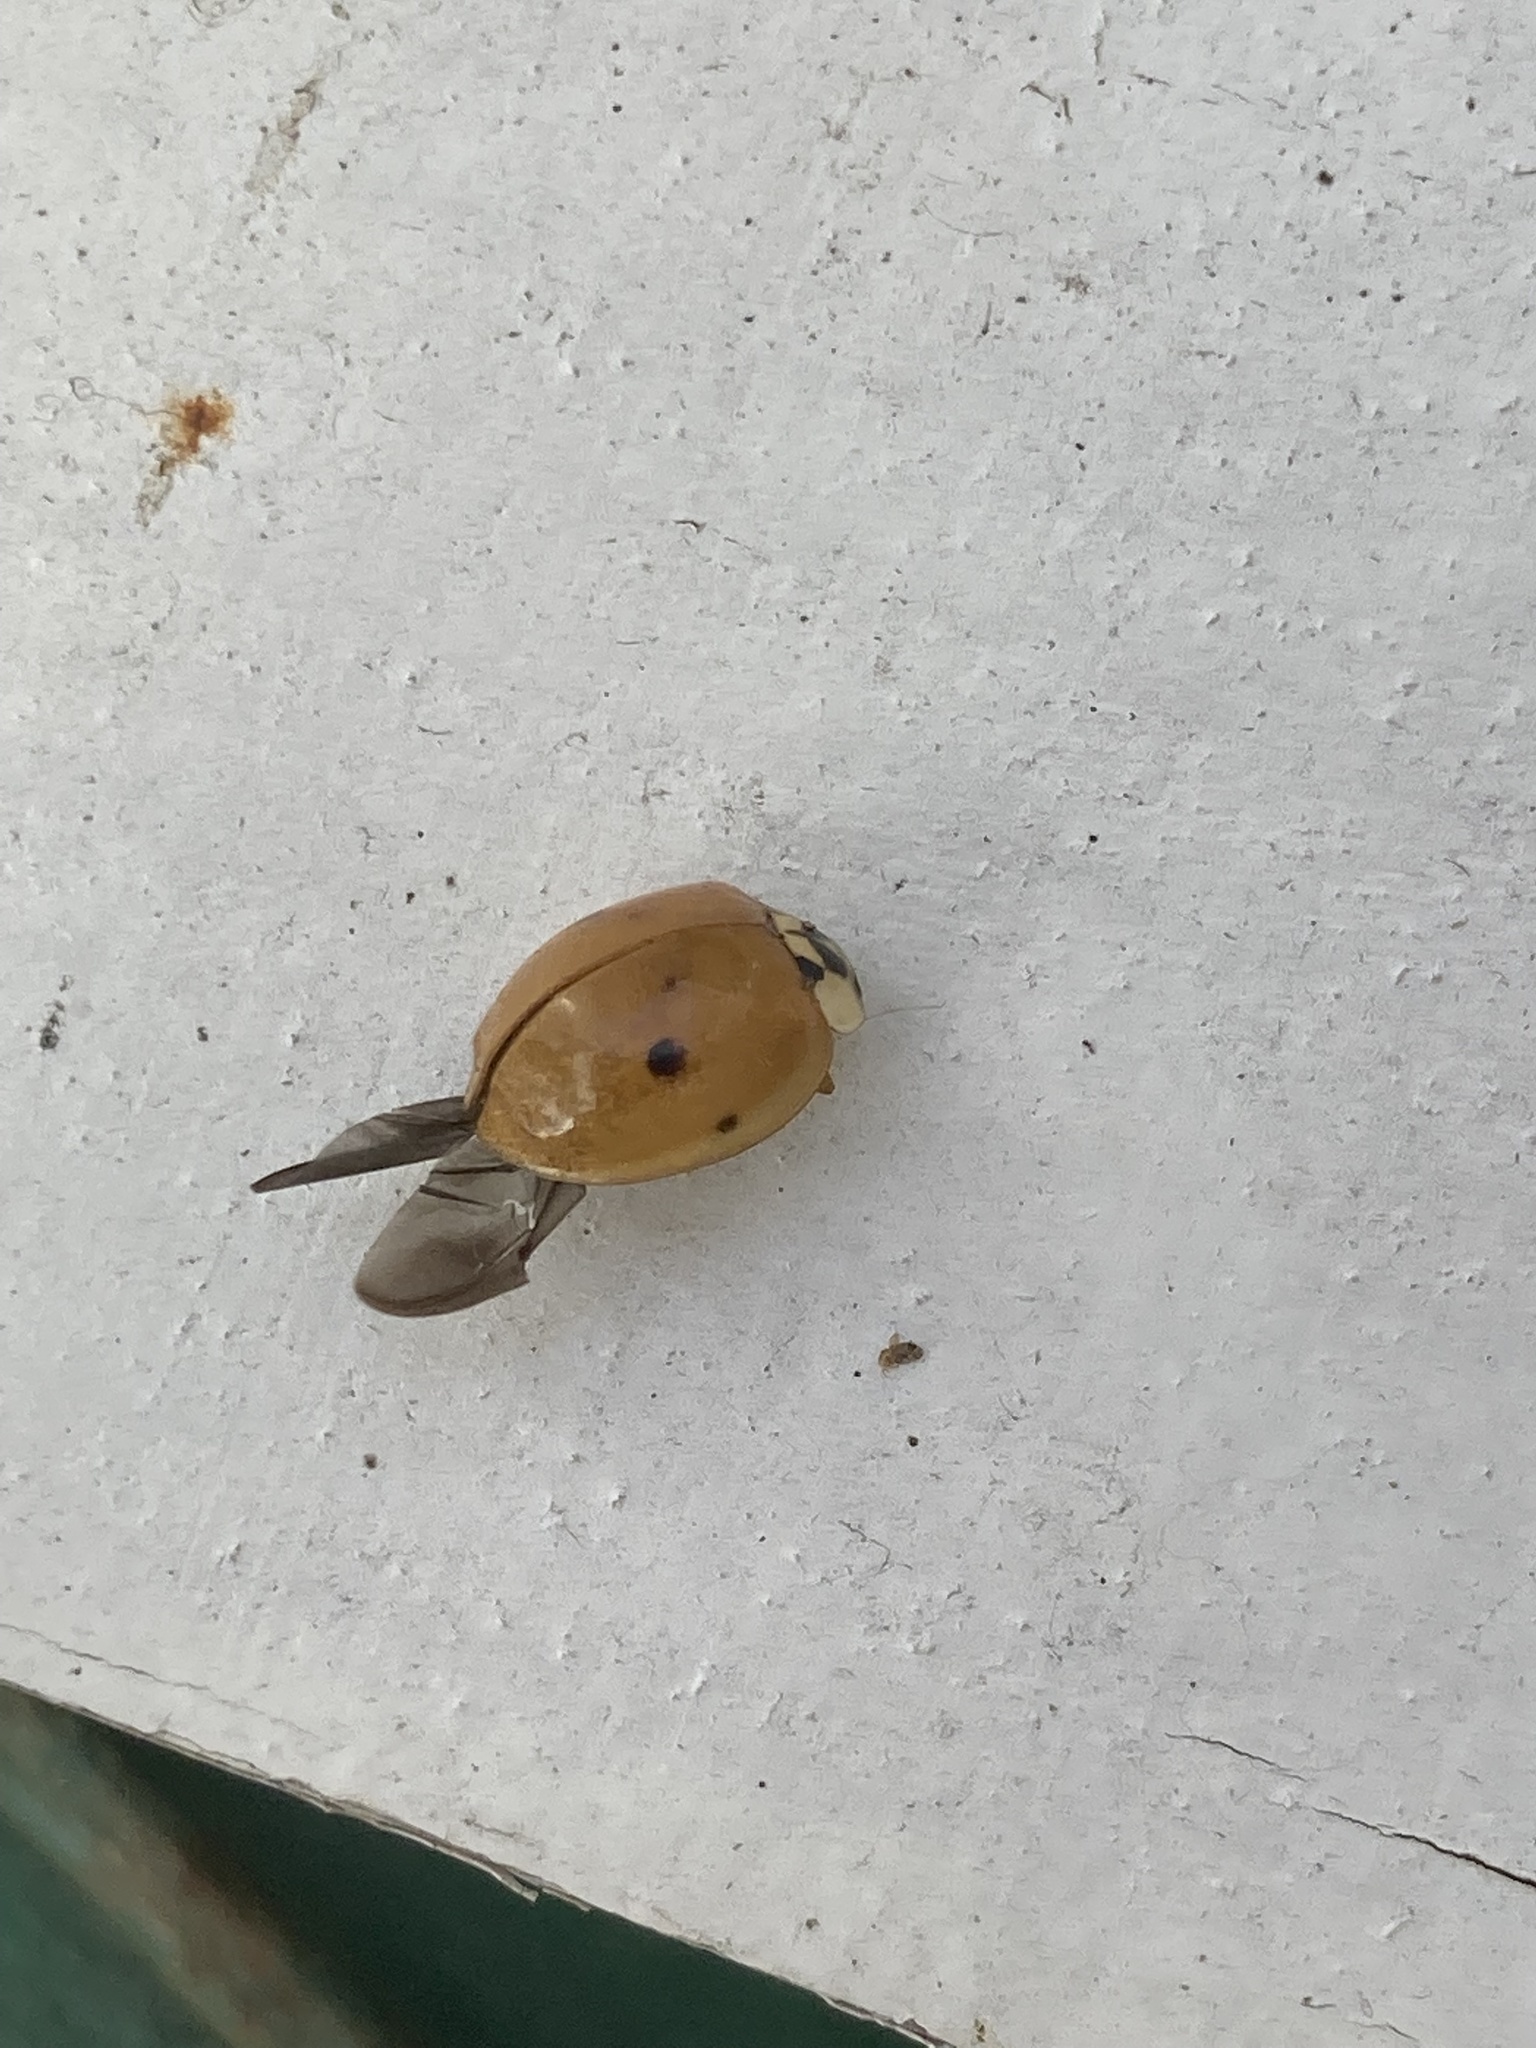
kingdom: Animalia
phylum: Arthropoda
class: Insecta
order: Coleoptera
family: Coccinellidae
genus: Harmonia
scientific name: Harmonia axyridis
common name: Harlequin ladybird
